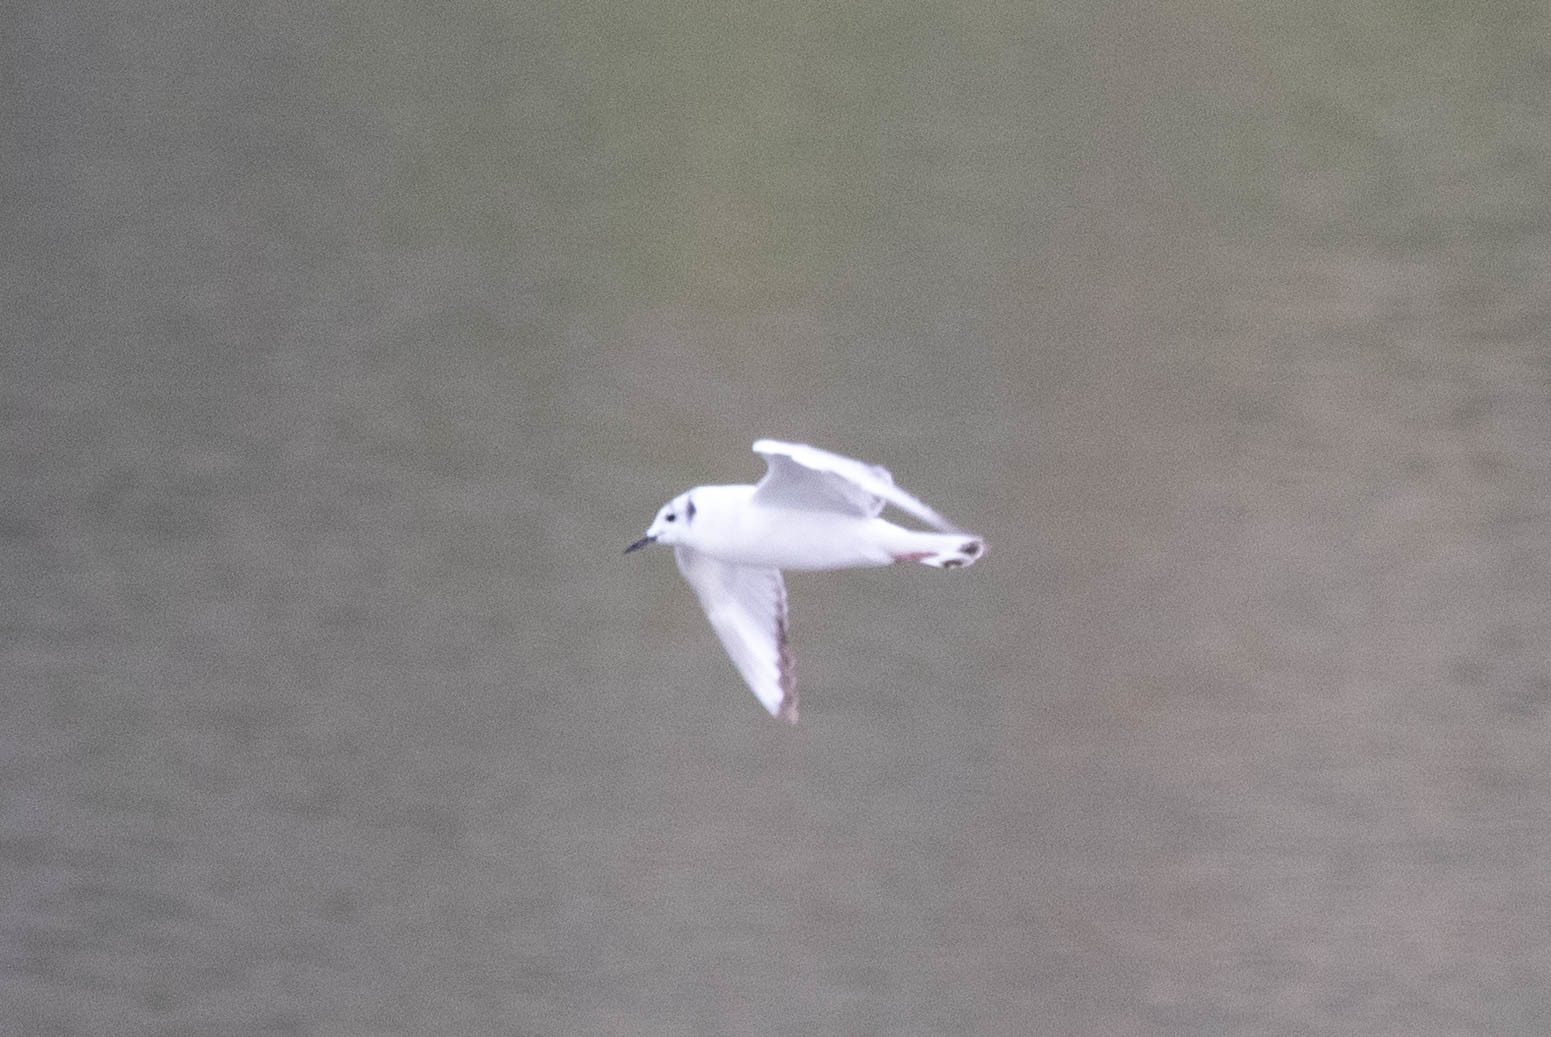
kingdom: Animalia
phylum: Chordata
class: Aves
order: Charadriiformes
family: Laridae
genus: Chroicocephalus
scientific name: Chroicocephalus philadelphia
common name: Bonaparte's gull
